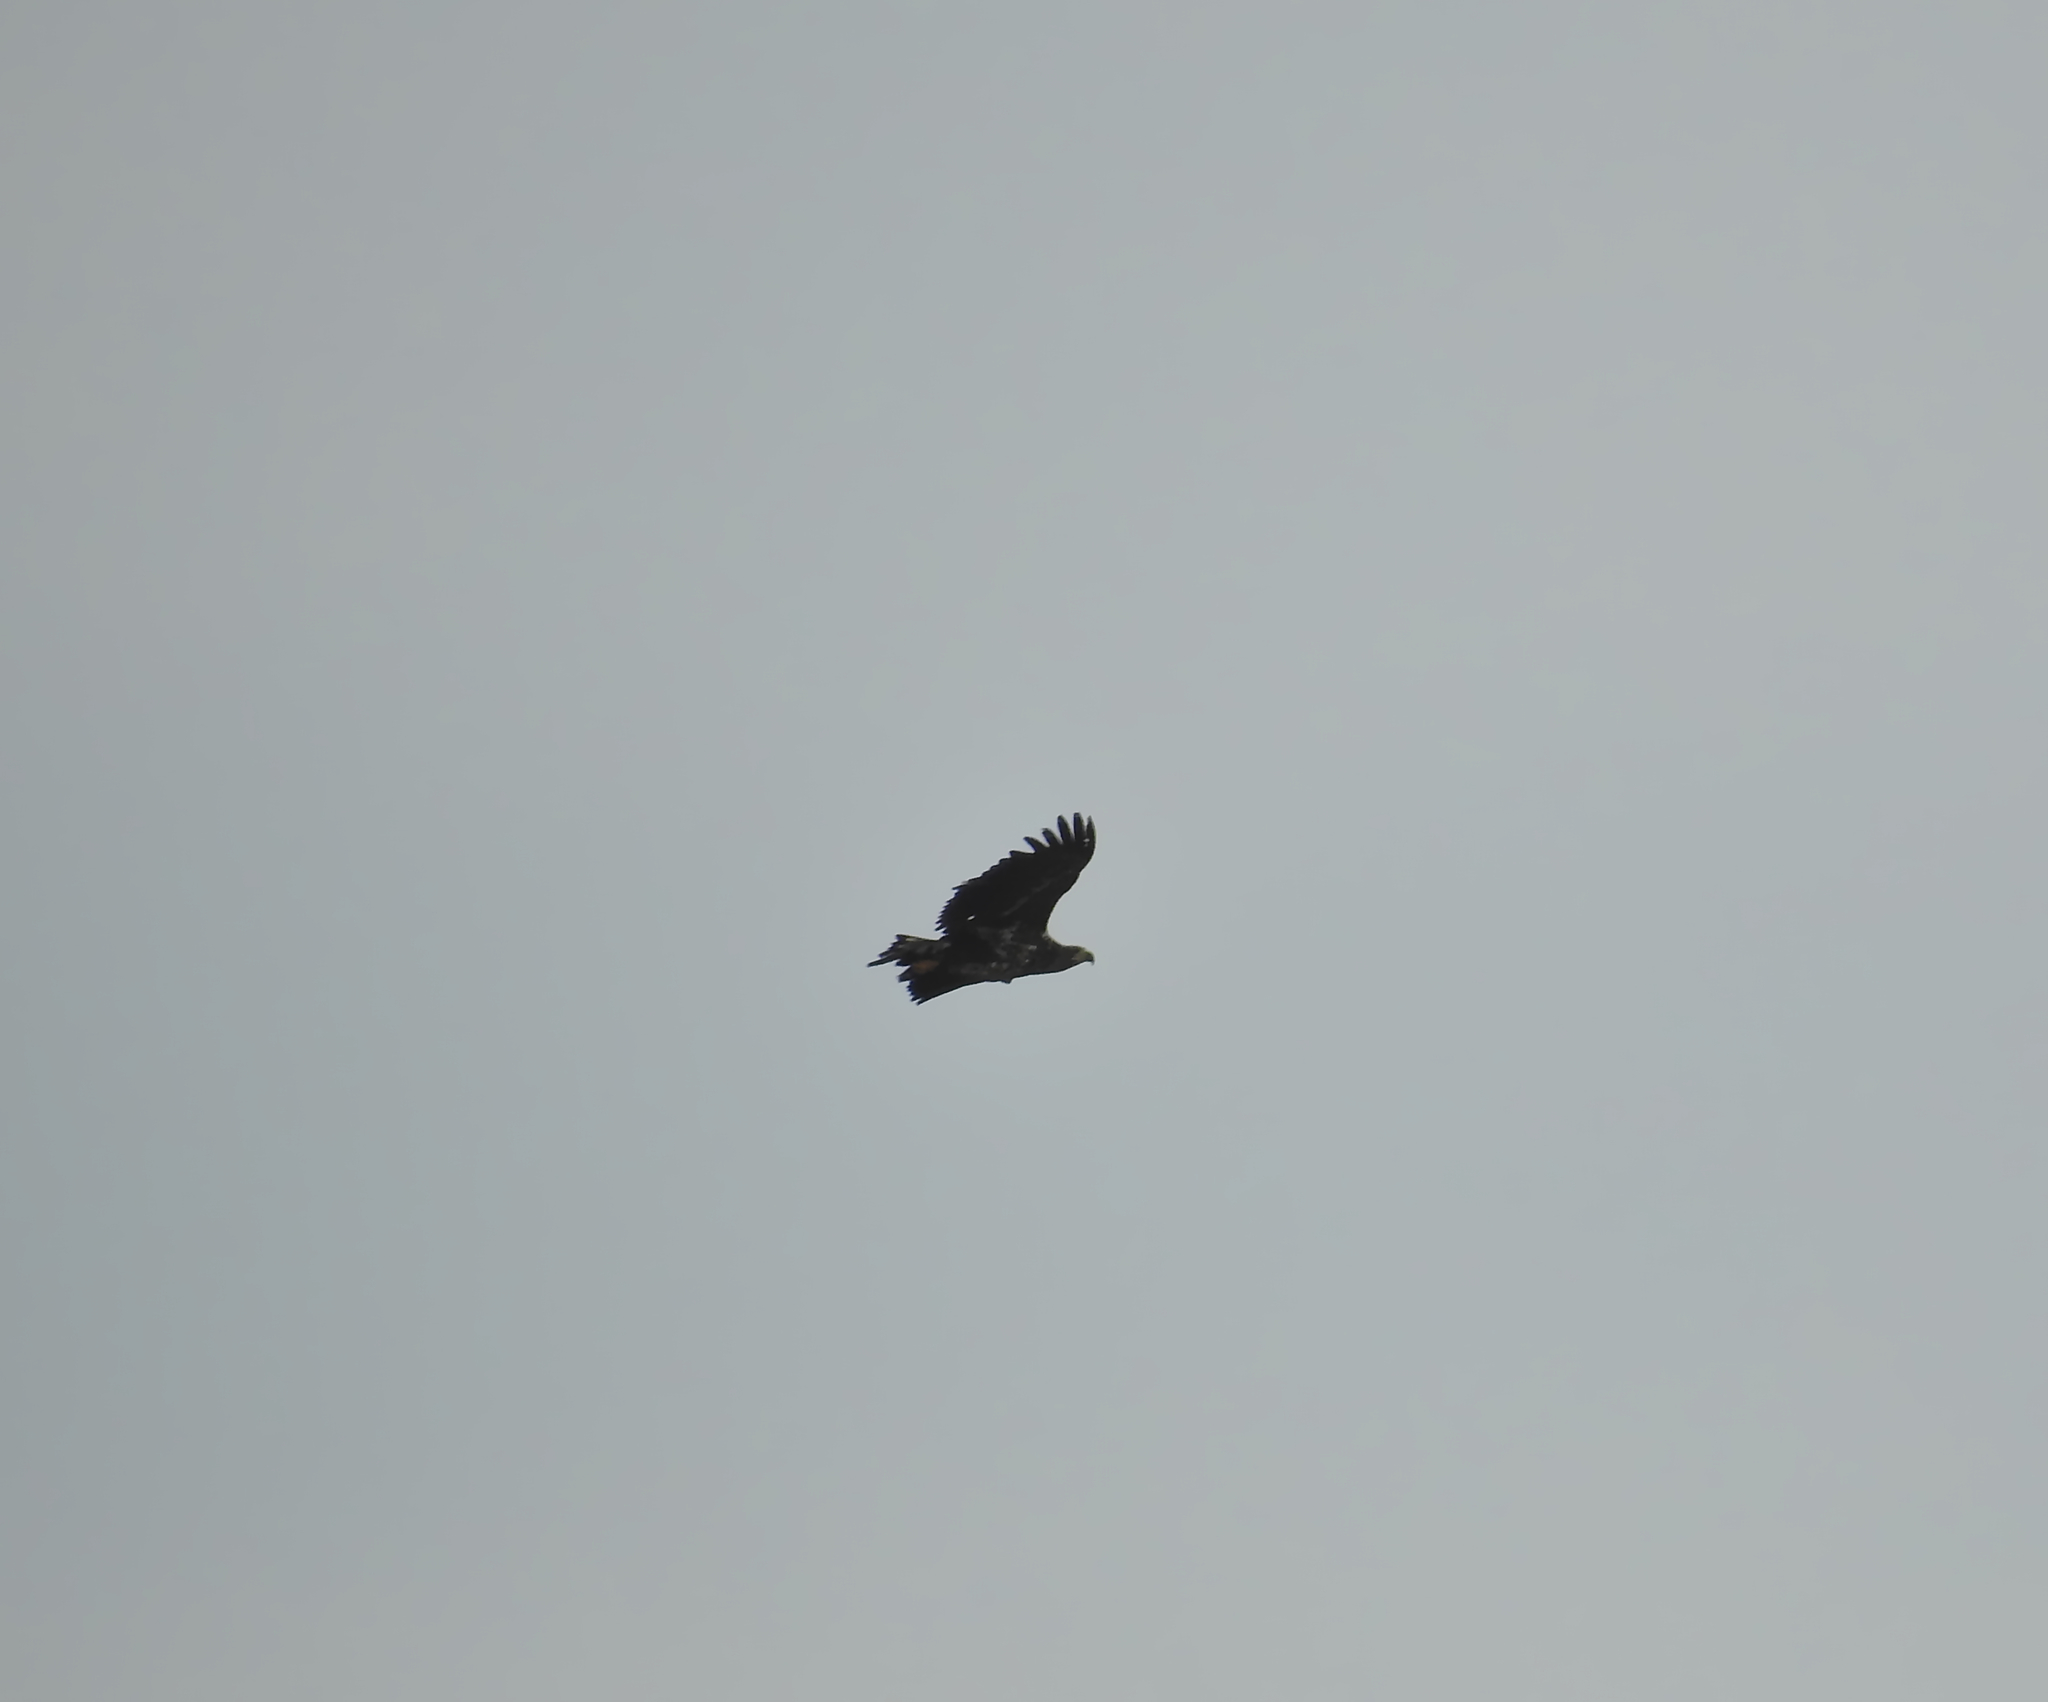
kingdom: Animalia
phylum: Chordata
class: Aves
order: Accipitriformes
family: Accipitridae
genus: Haliaeetus
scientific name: Haliaeetus albicilla
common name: White-tailed eagle
